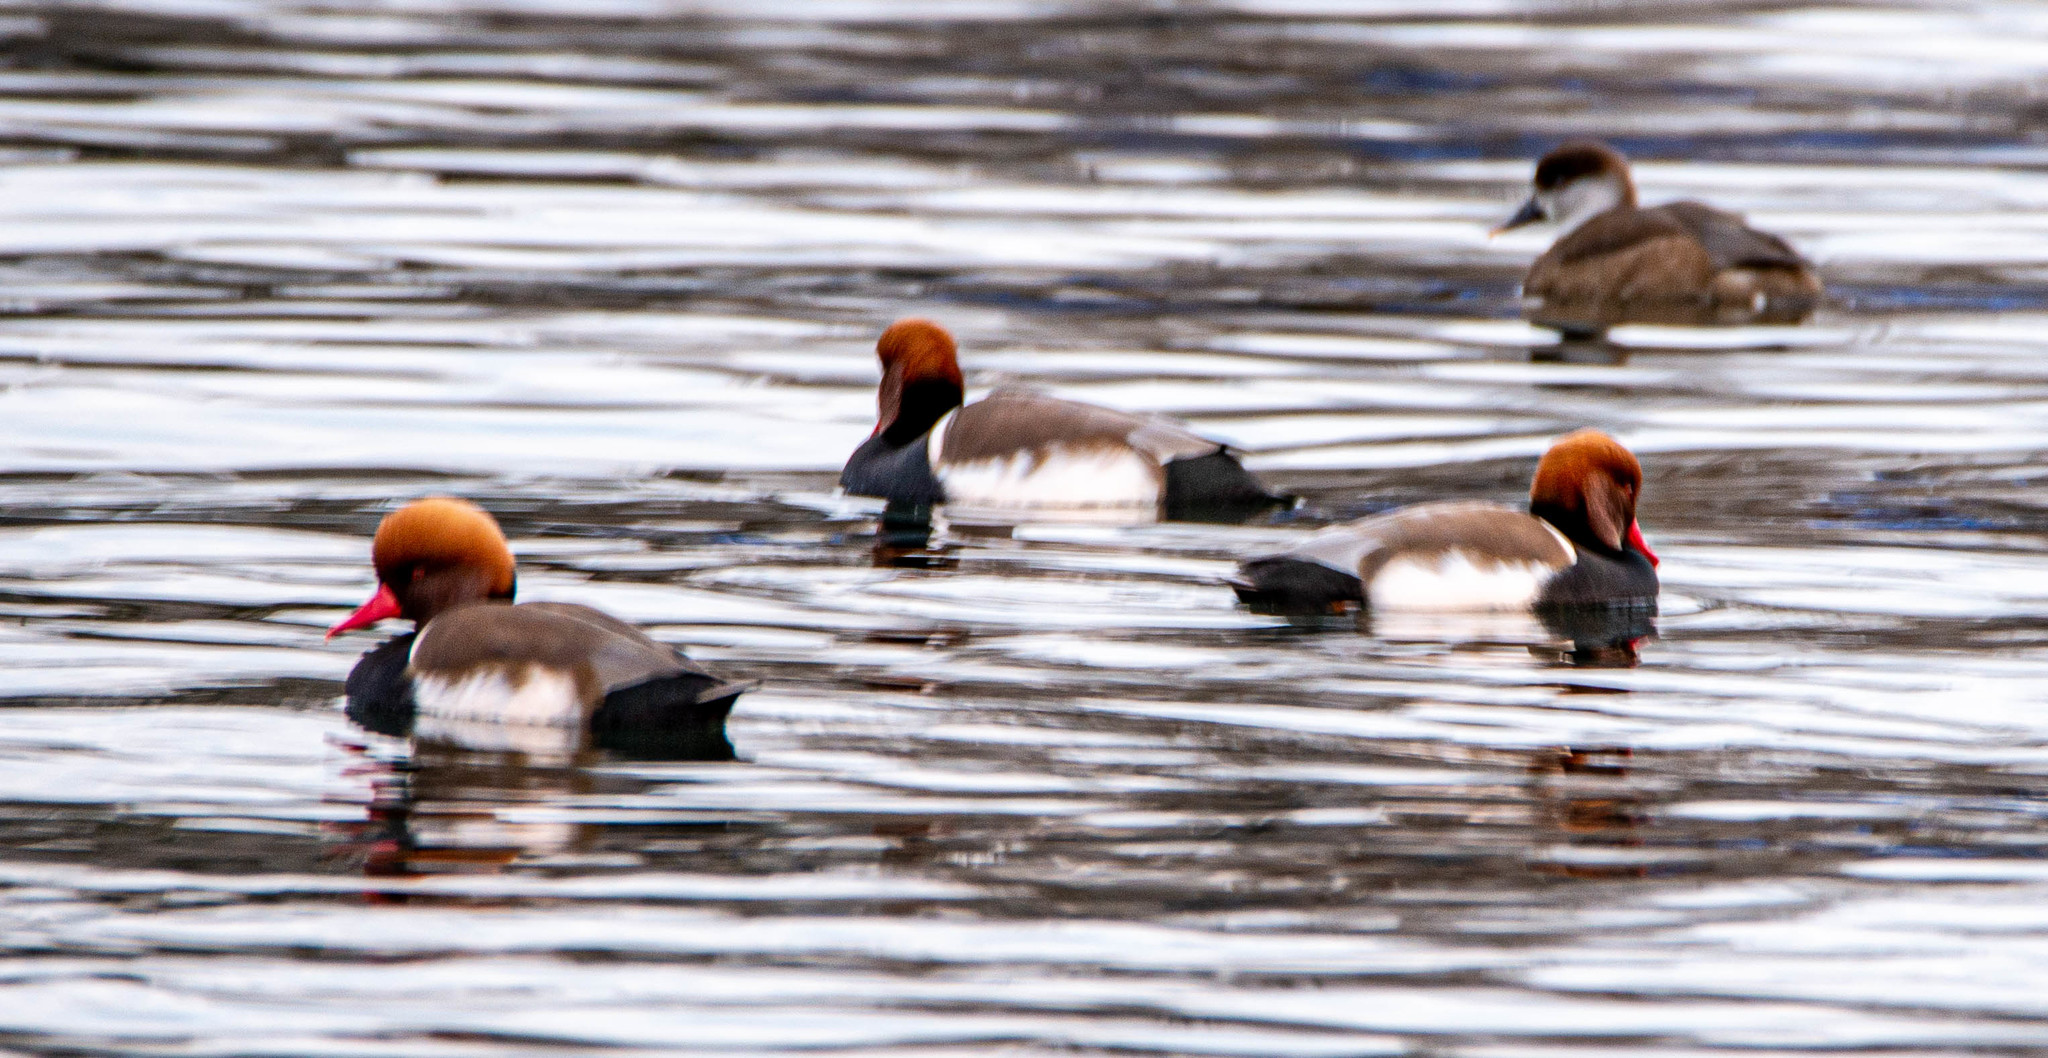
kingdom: Animalia
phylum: Chordata
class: Aves
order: Anseriformes
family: Anatidae
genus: Netta
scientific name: Netta rufina
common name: Red-crested pochard
